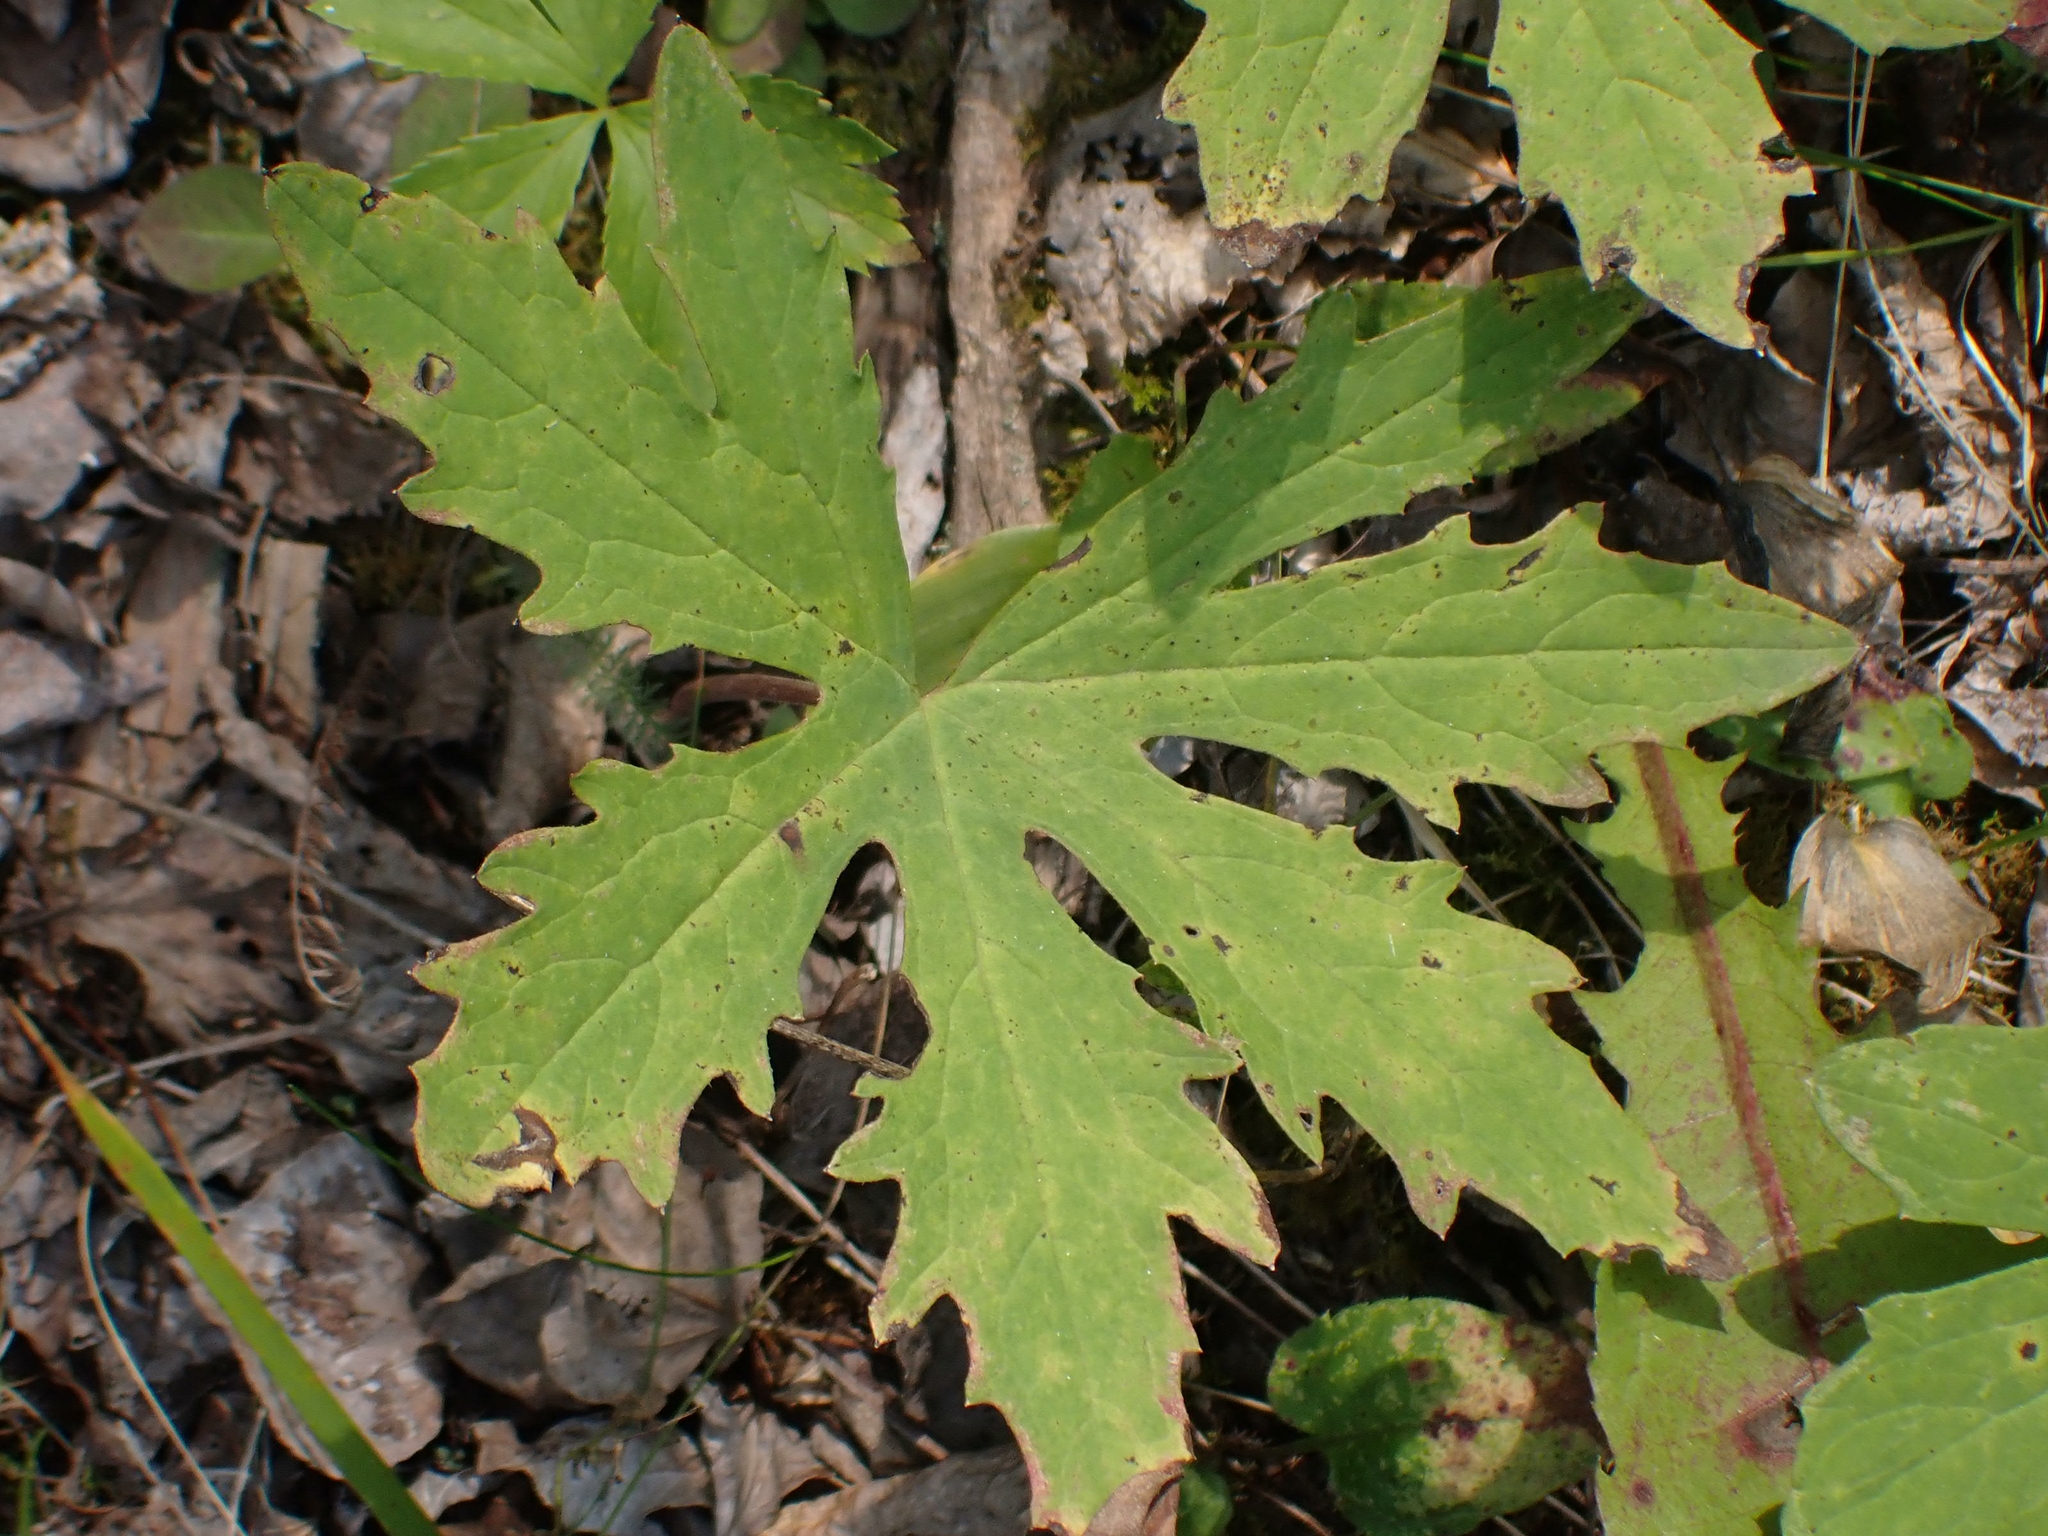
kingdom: Plantae
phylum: Tracheophyta
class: Magnoliopsida
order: Asterales
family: Asteraceae
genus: Petasites
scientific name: Petasites frigidus
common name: Arctic butterbur
